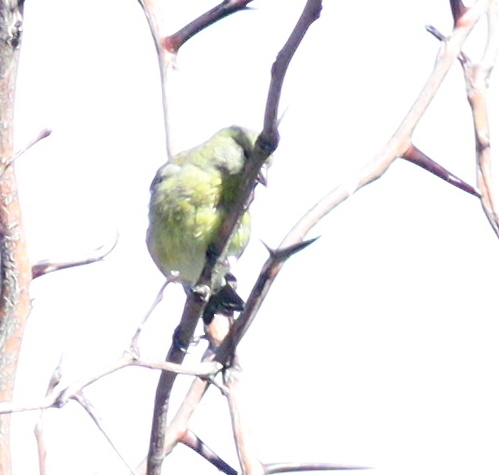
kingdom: Animalia
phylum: Chordata
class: Aves
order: Passeriformes
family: Fringillidae
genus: Spinus
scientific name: Spinus magellanicus
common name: Hooded siskin
